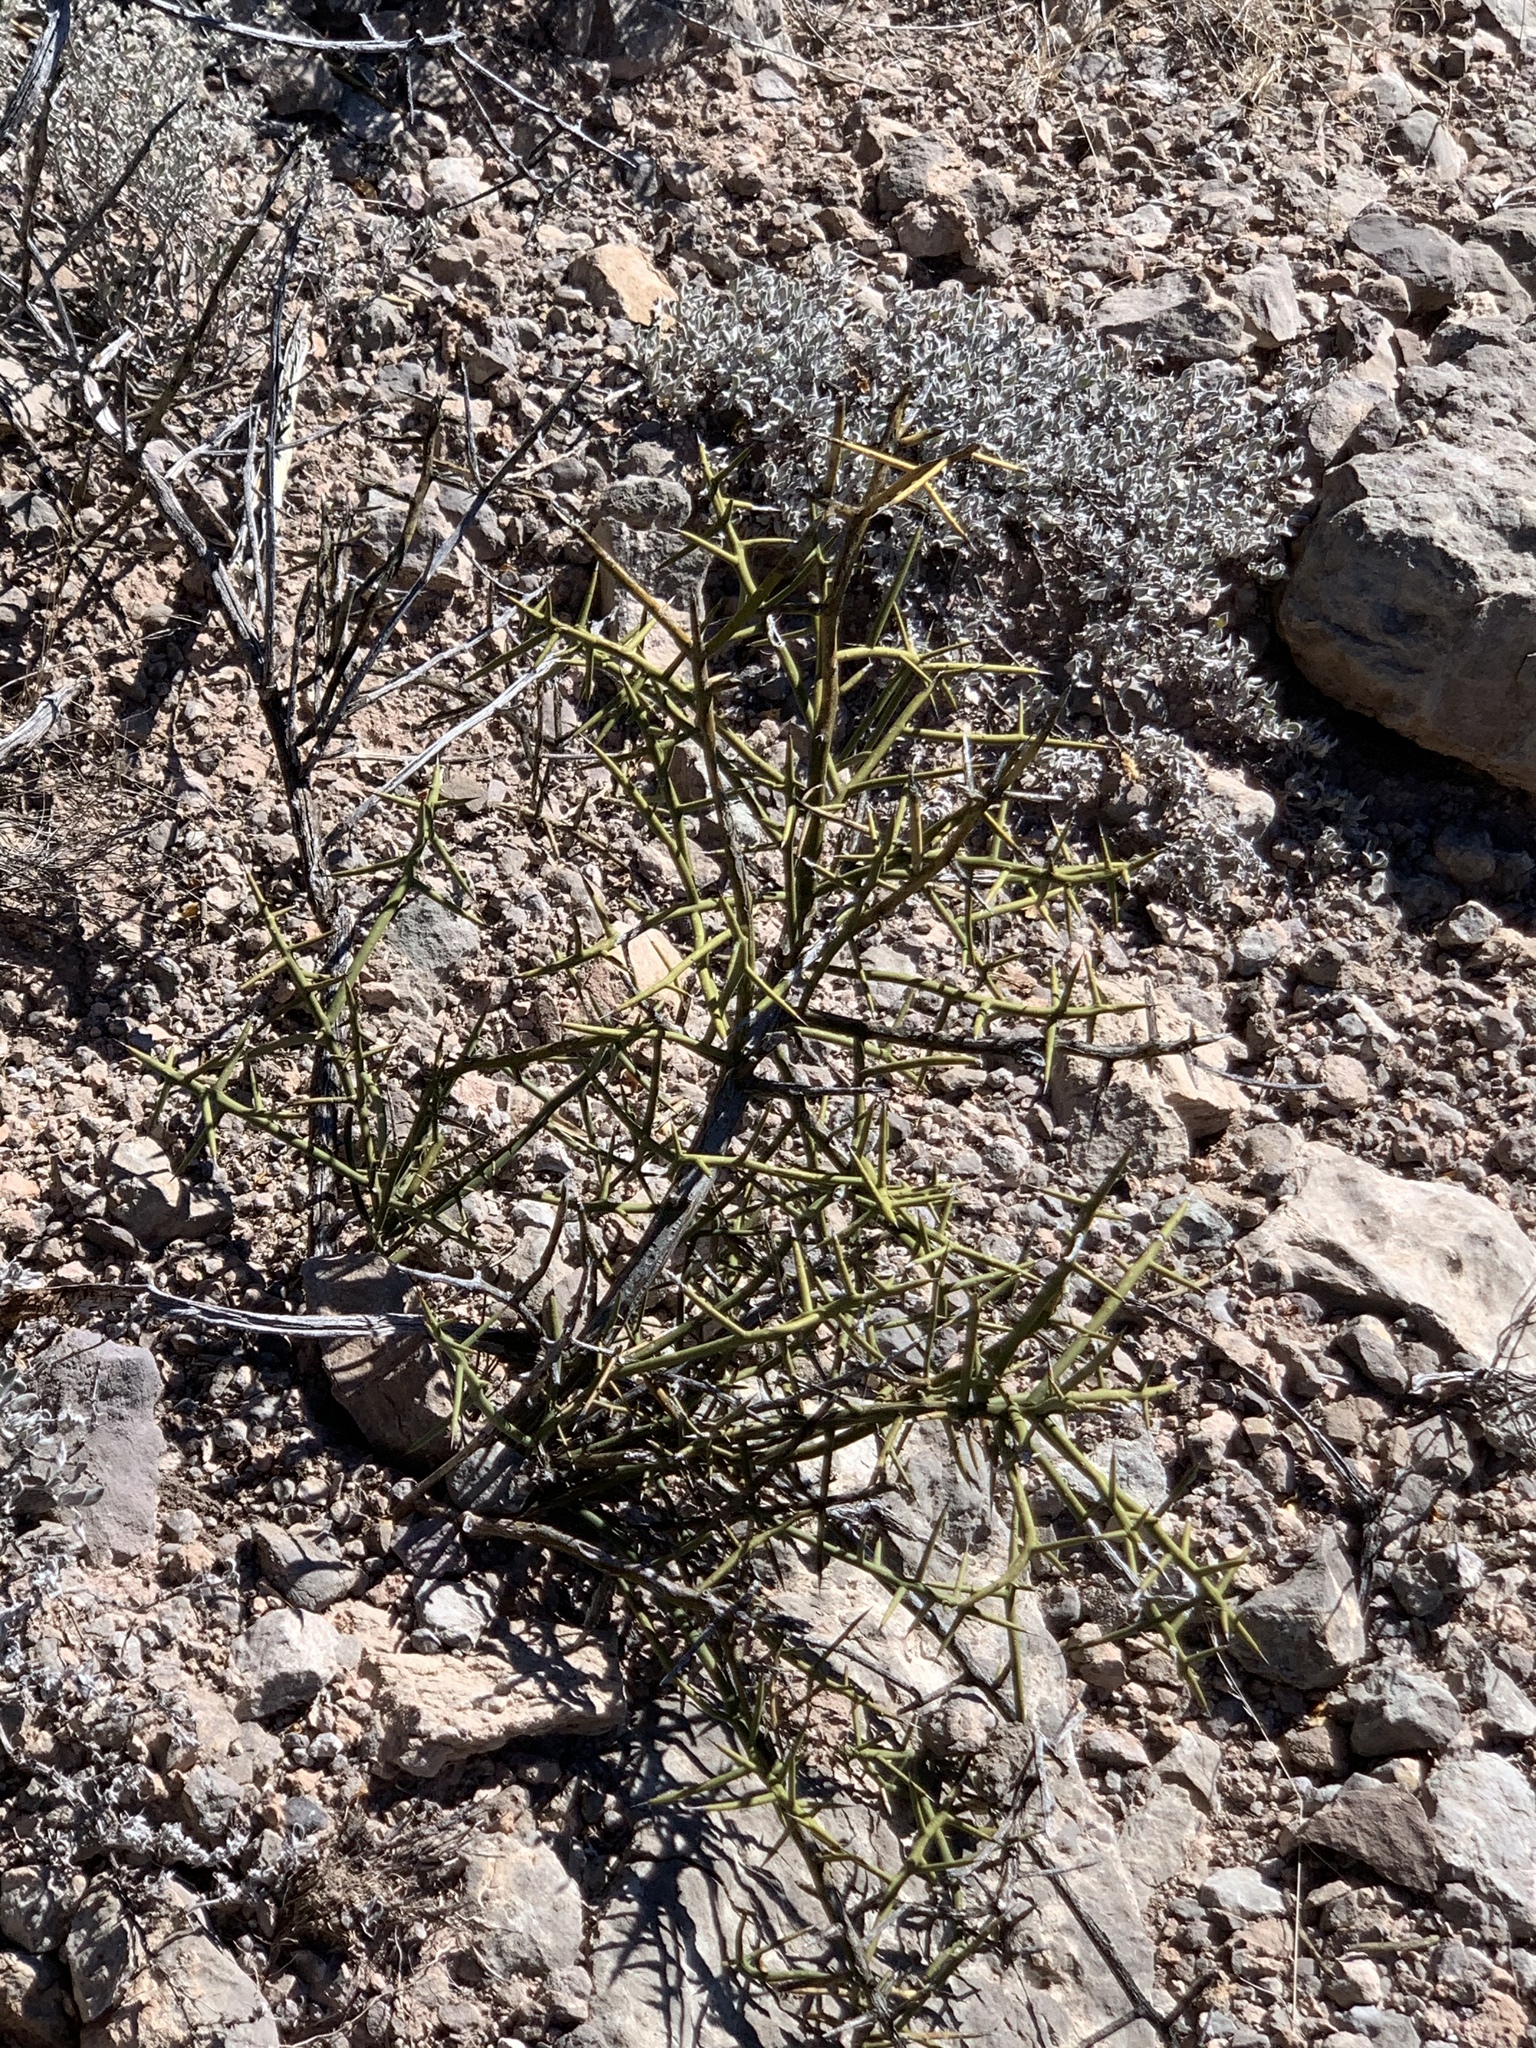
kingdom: Plantae
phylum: Tracheophyta
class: Magnoliopsida
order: Brassicales
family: Koeberliniaceae
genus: Koeberlinia
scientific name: Koeberlinia spinosa
